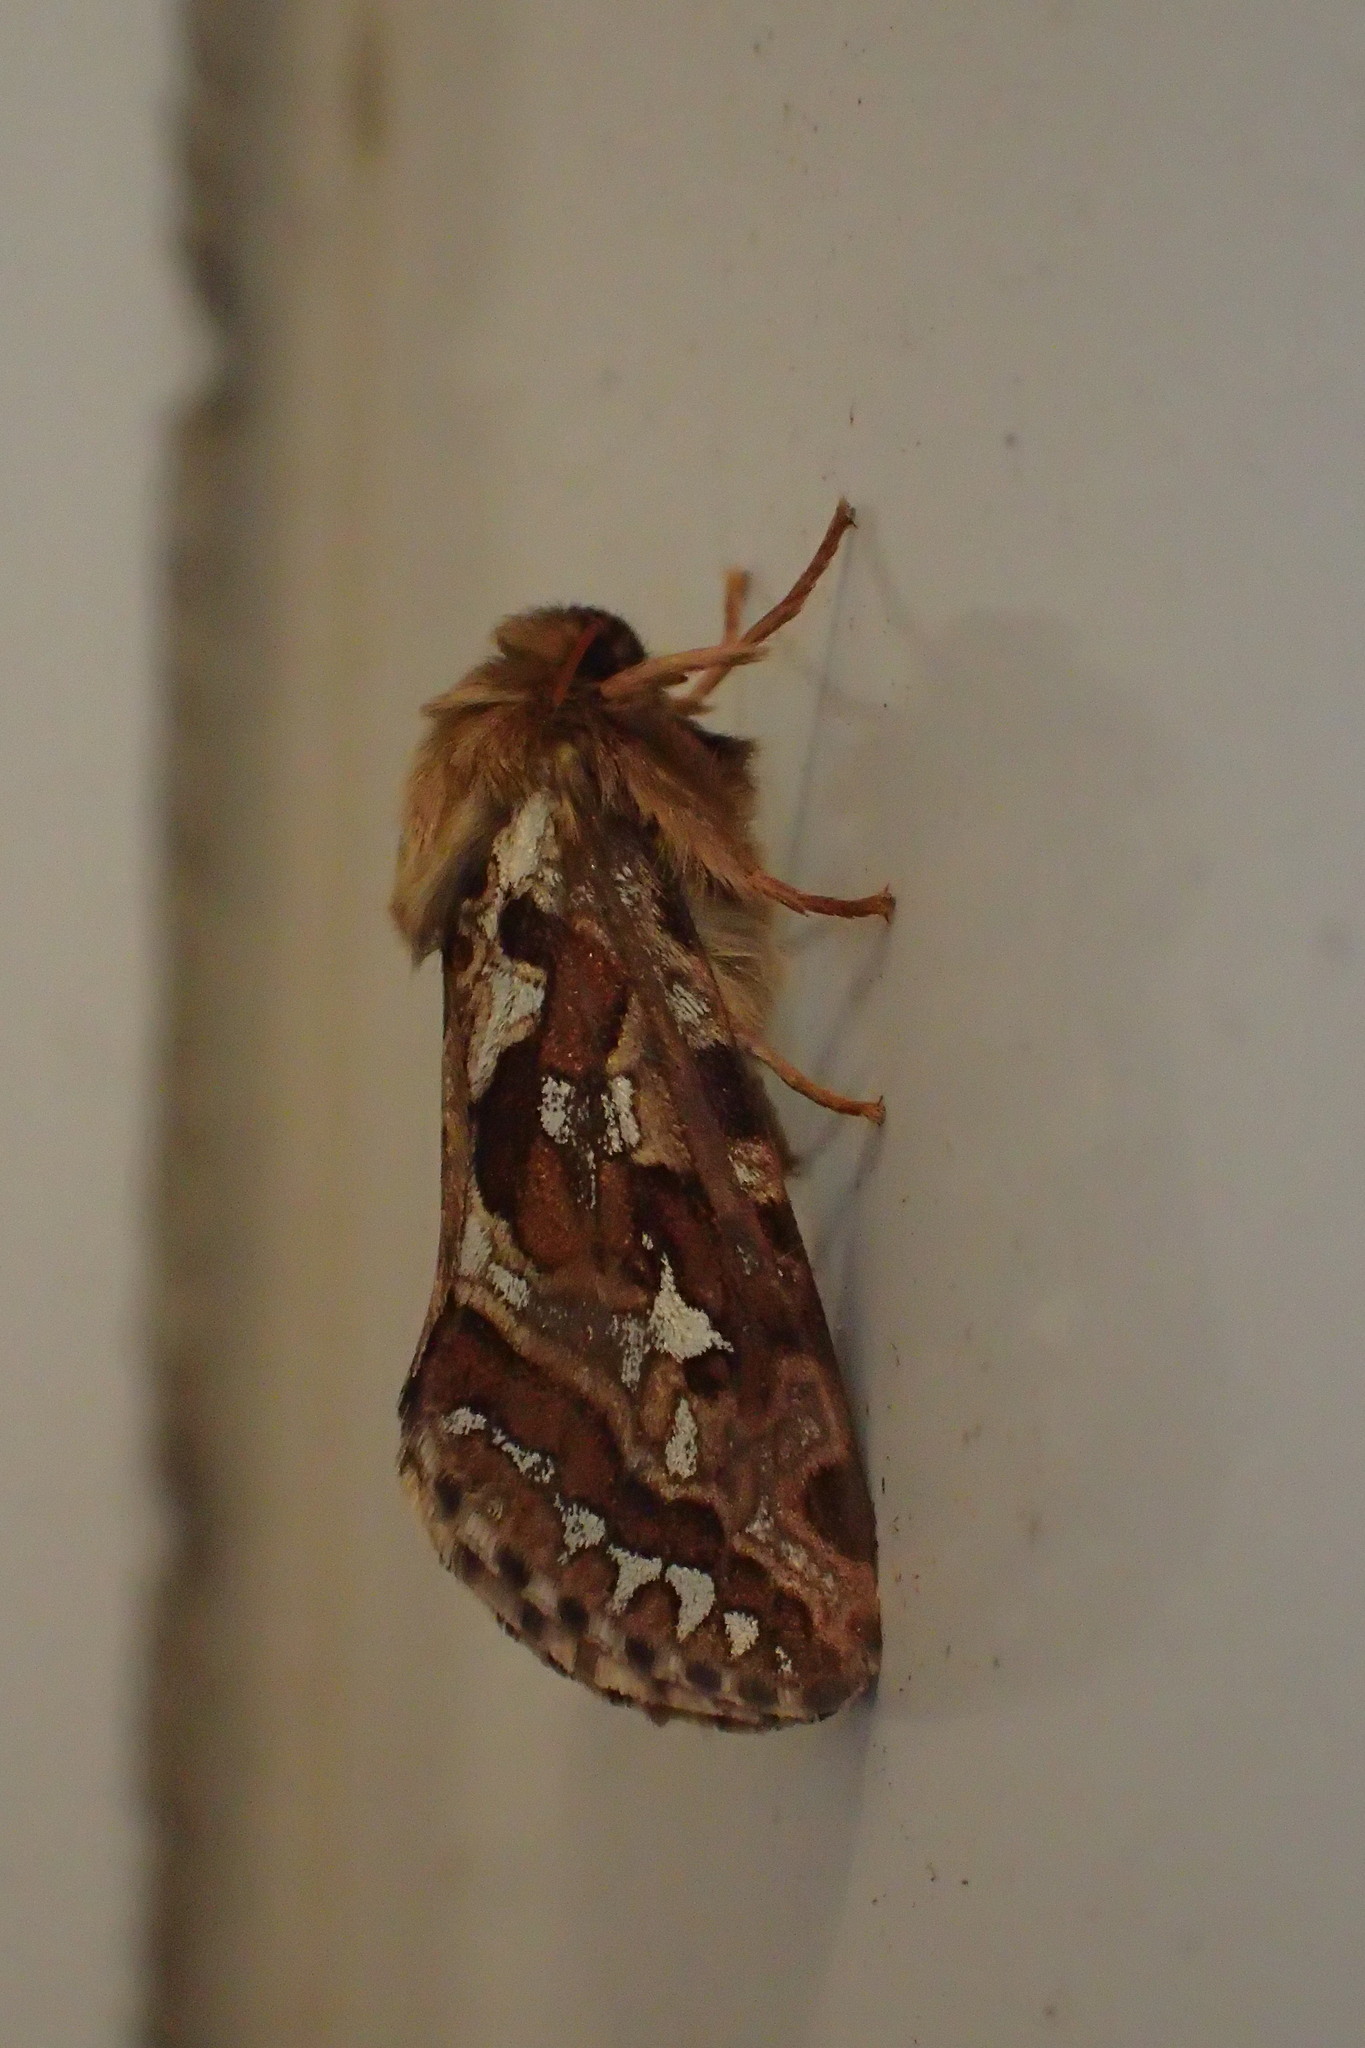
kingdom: Animalia
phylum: Arthropoda
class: Insecta
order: Lepidoptera
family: Hepialidae
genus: Korscheltellus
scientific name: Korscheltellus fusconebulosus
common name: Map-winged swift
